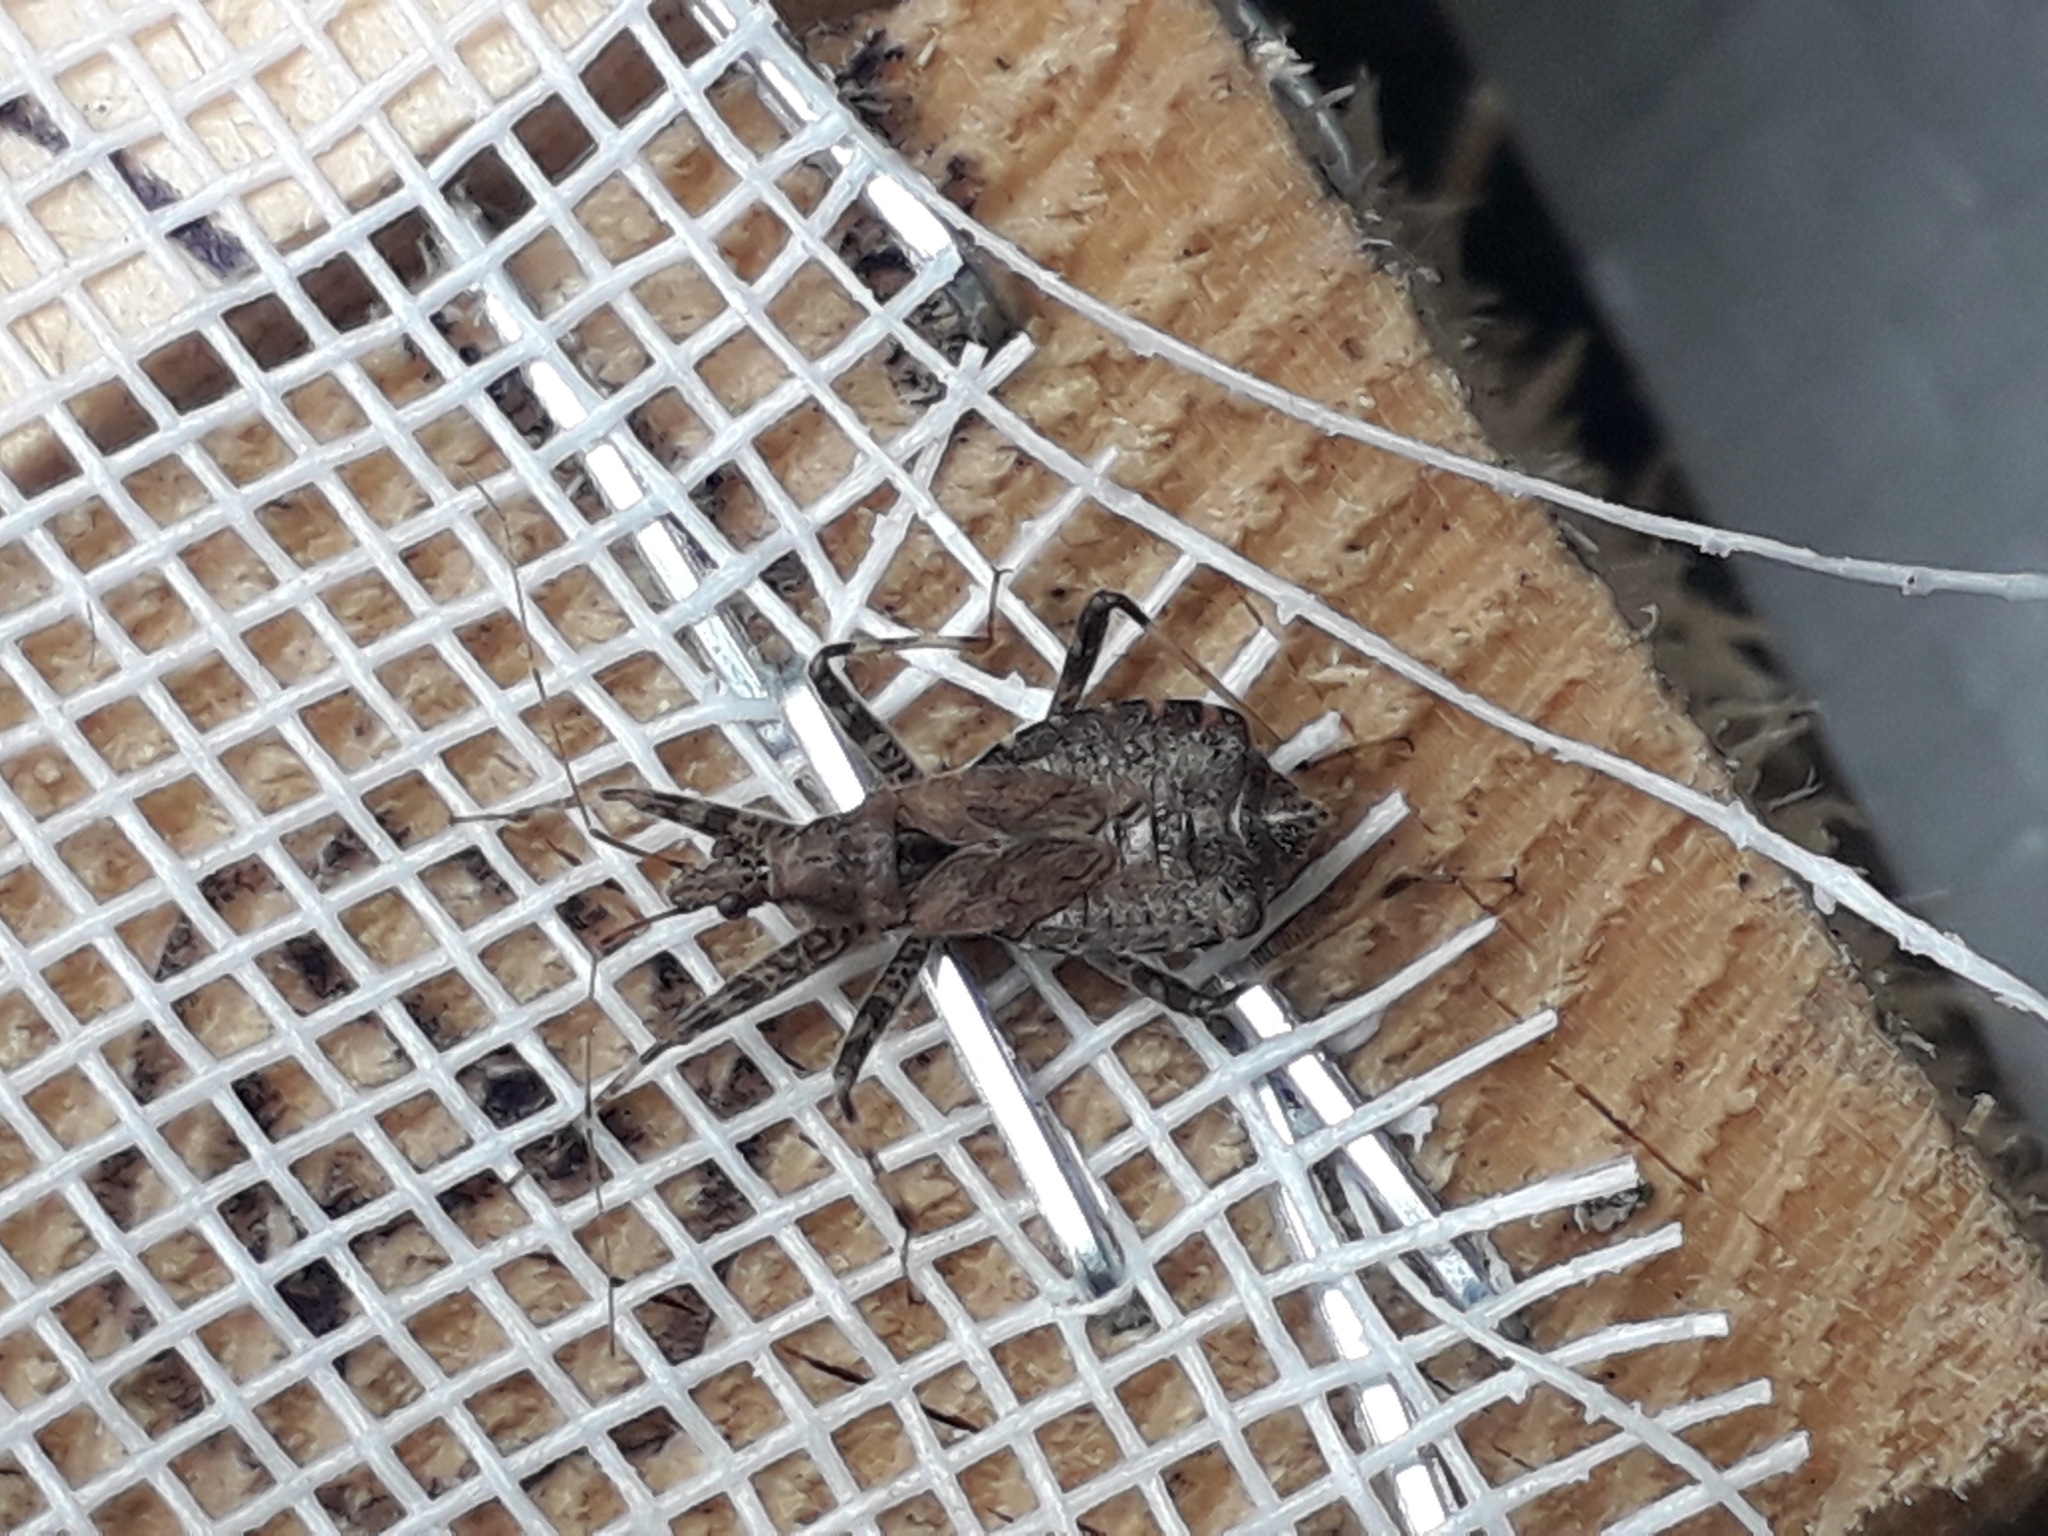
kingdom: Animalia
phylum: Arthropoda
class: Insecta
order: Hemiptera
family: Nabidae
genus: Himacerus
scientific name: Himacerus apterus
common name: Tree damsel bug
